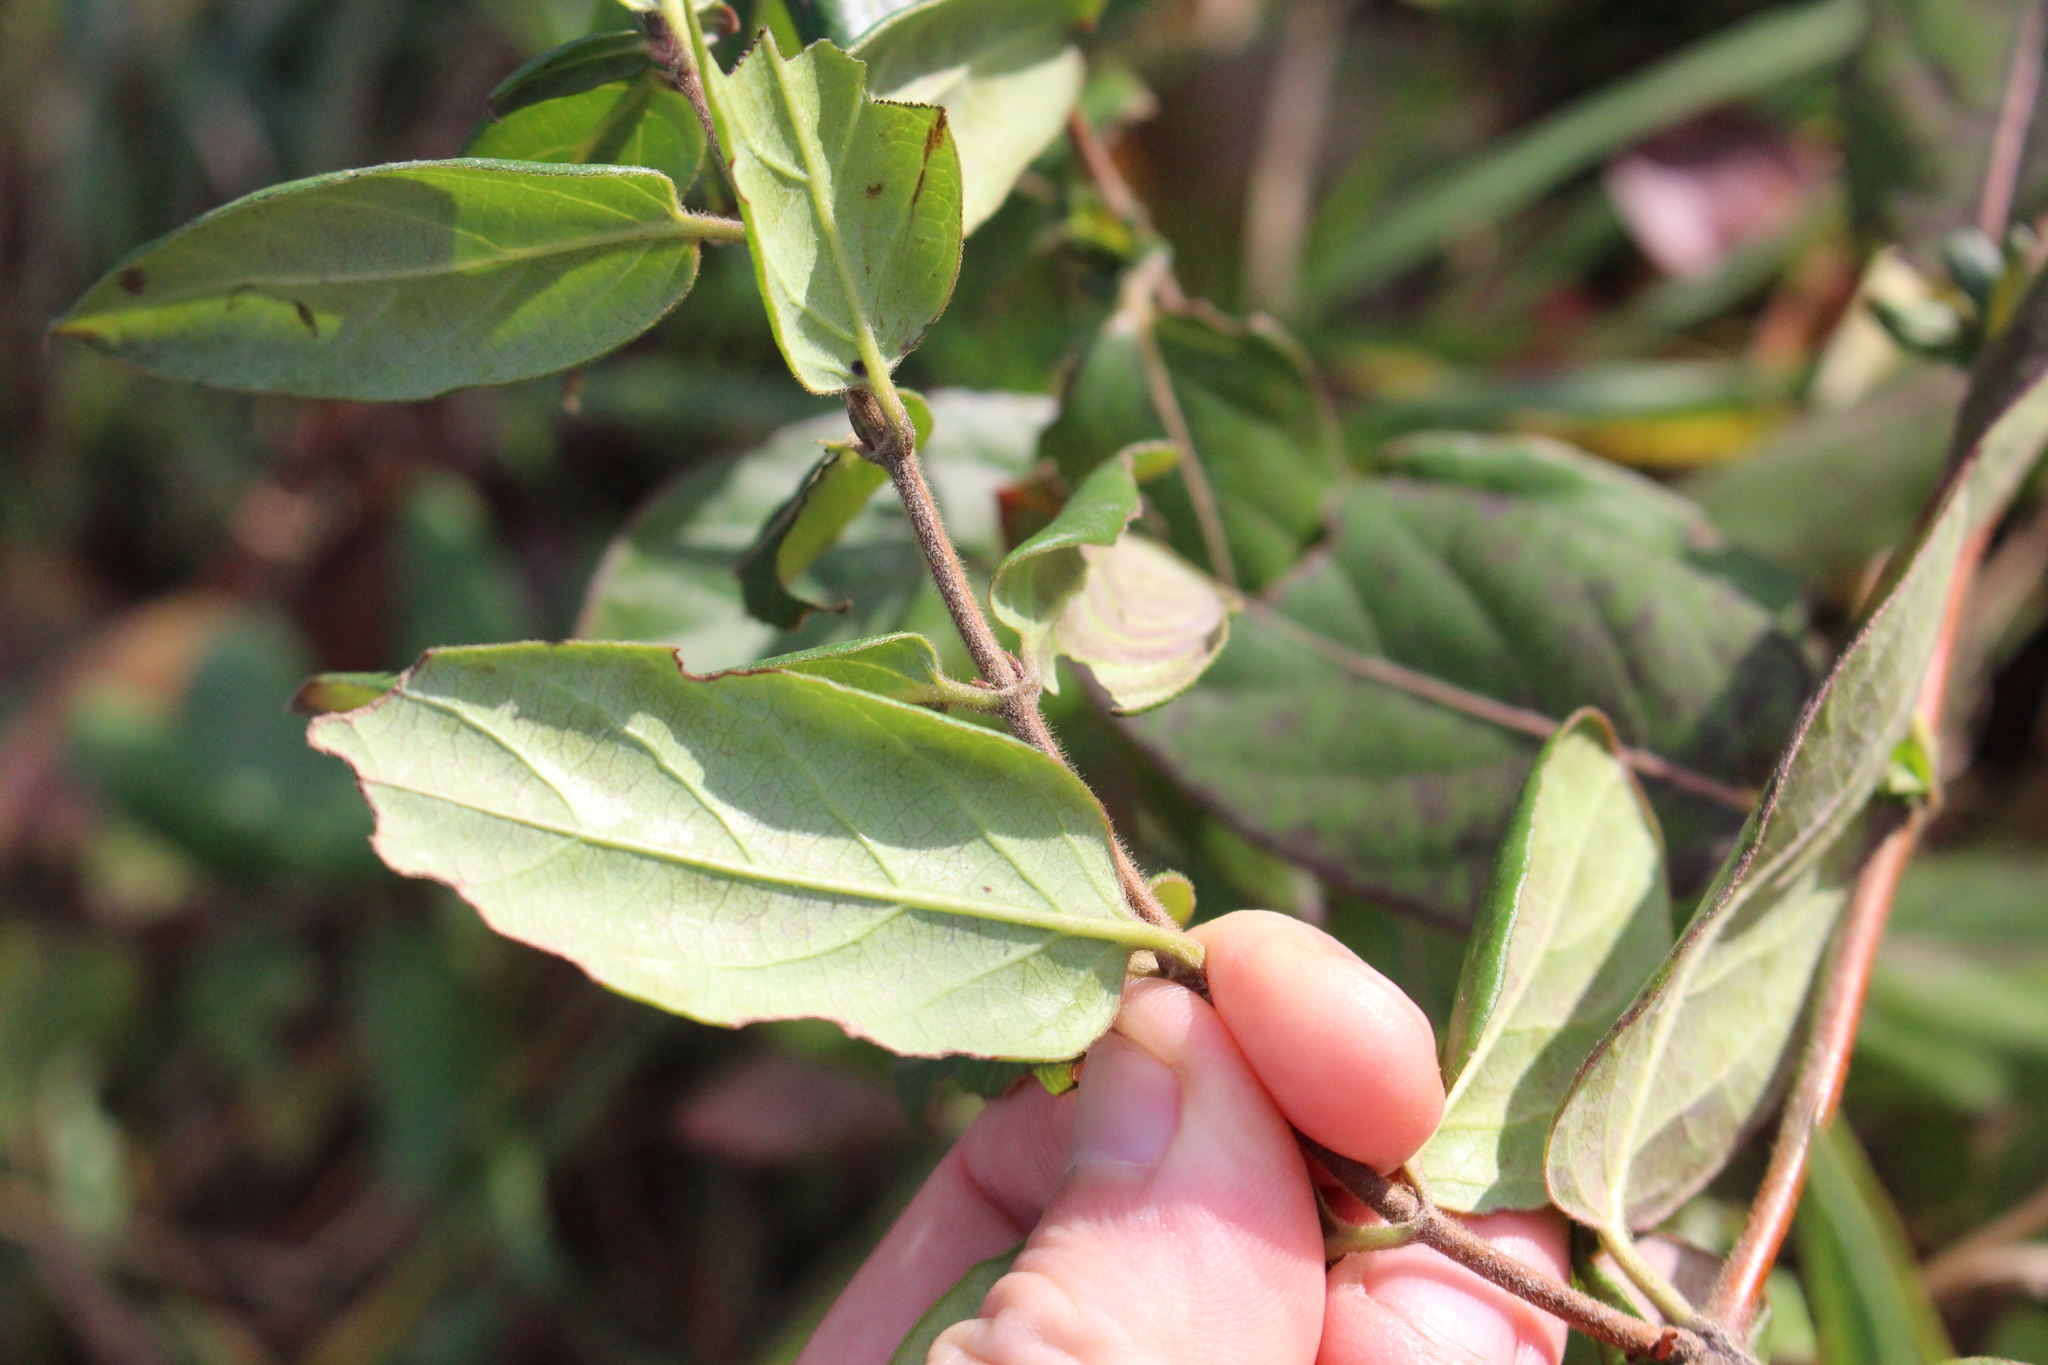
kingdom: Plantae
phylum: Tracheophyta
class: Magnoliopsida
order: Dipsacales
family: Caprifoliaceae
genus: Lonicera
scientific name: Lonicera japonica
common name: Japanese honeysuckle
